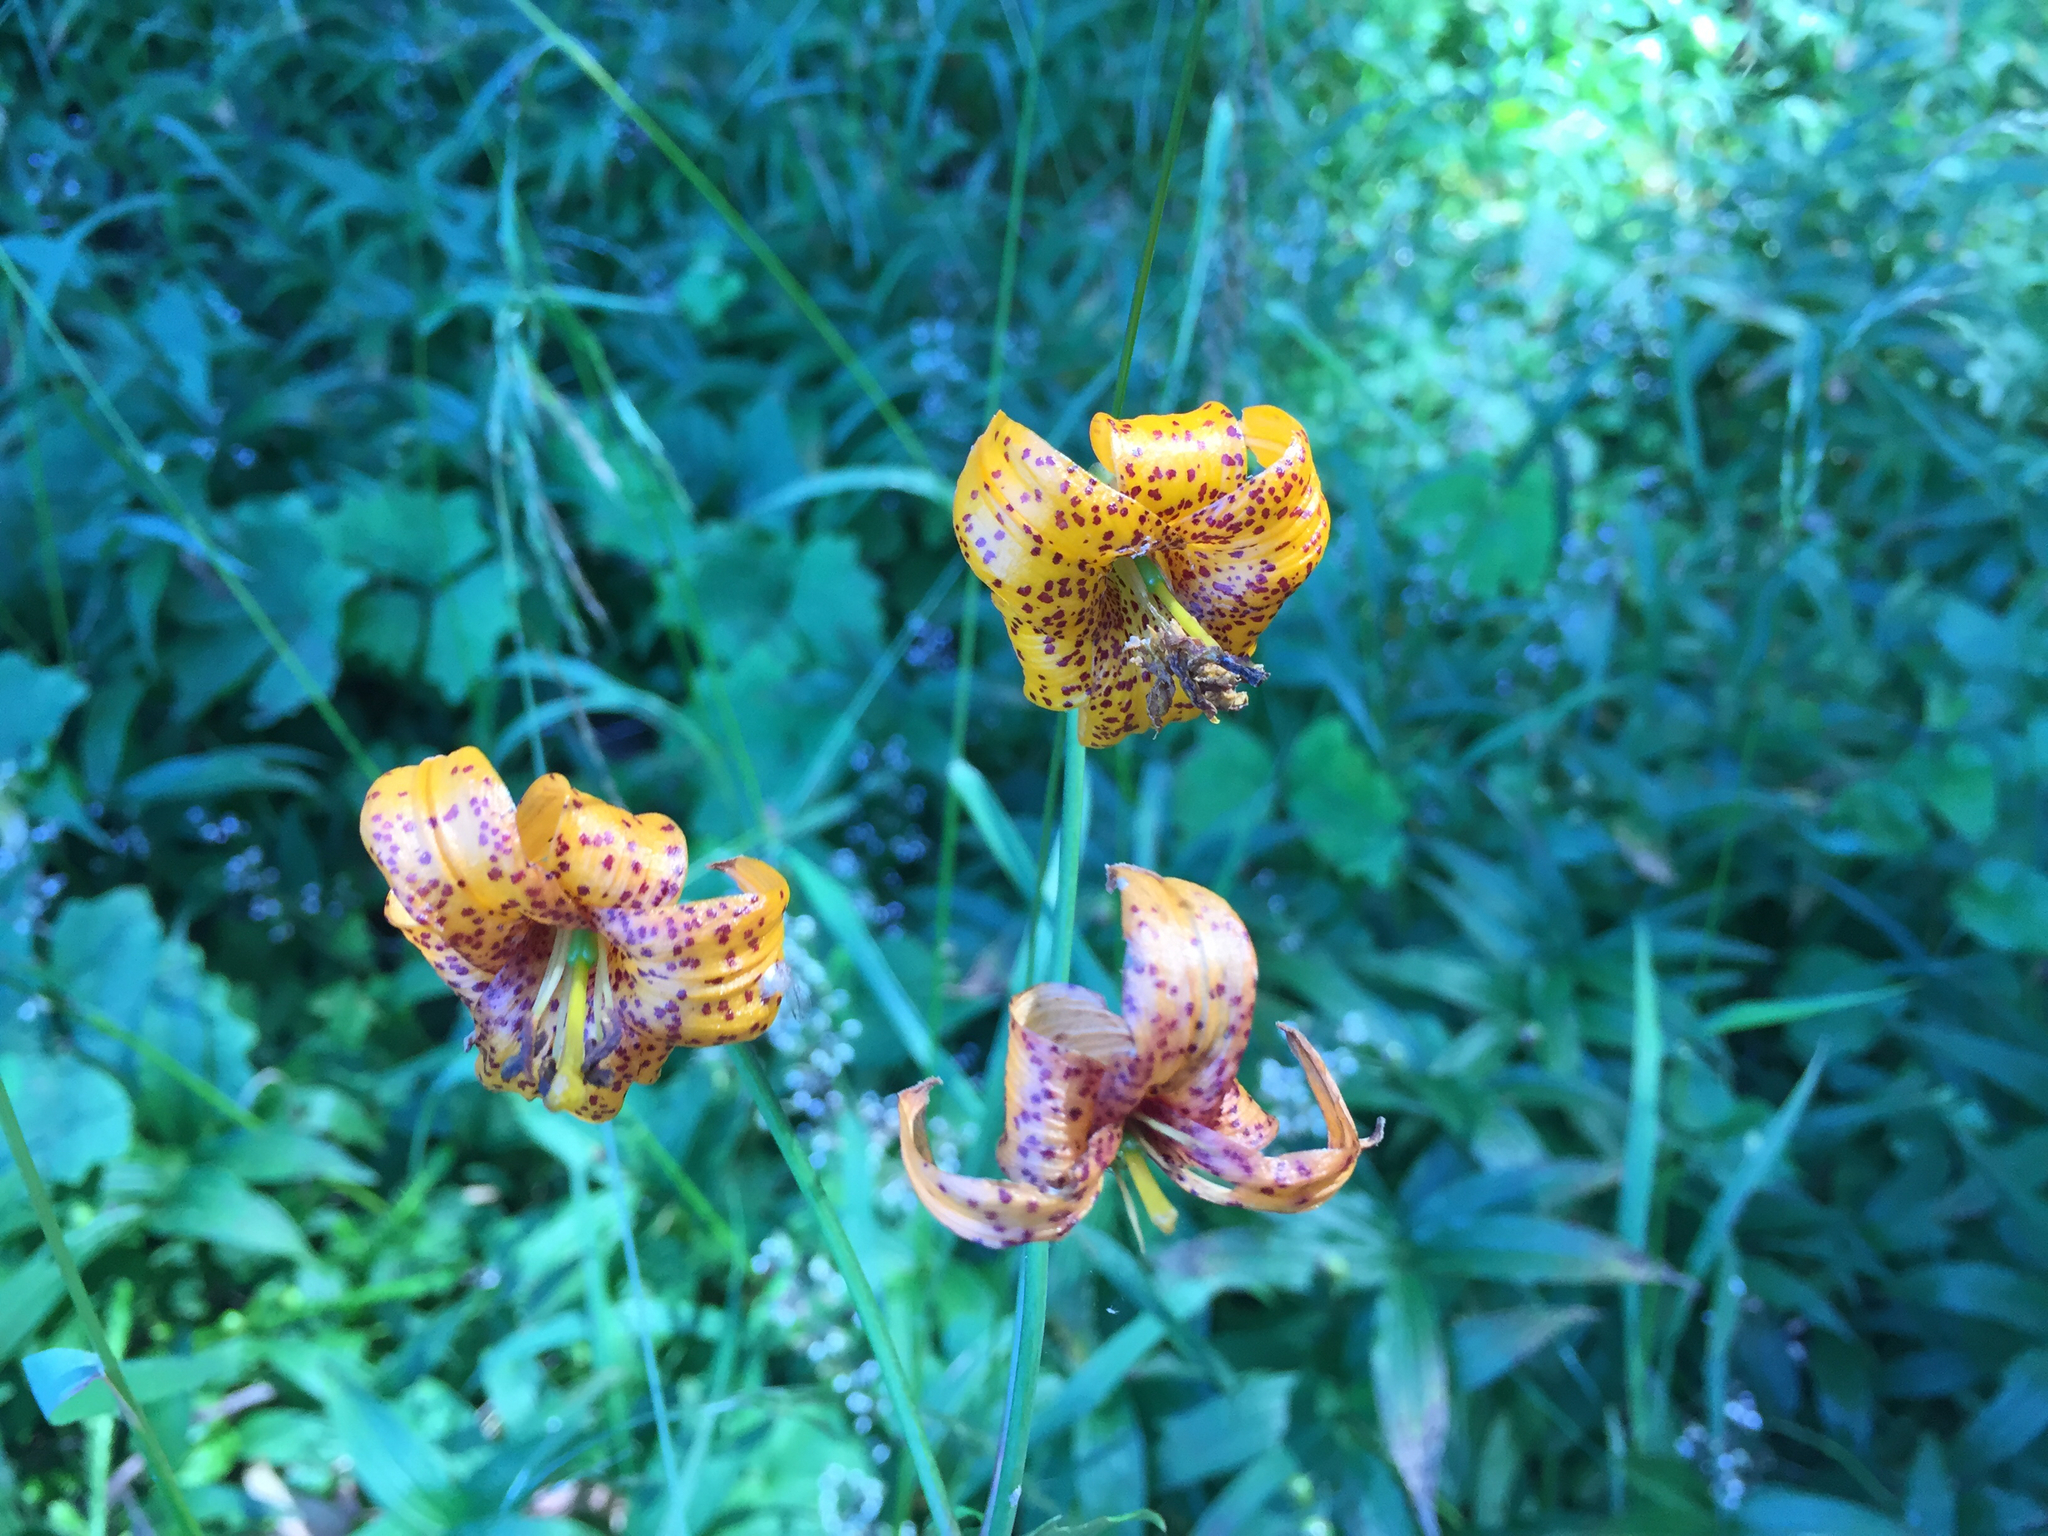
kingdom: Plantae
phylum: Tracheophyta
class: Liliopsida
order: Liliales
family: Liliaceae
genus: Lilium
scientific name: Lilium columbianum
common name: Columbia lily
